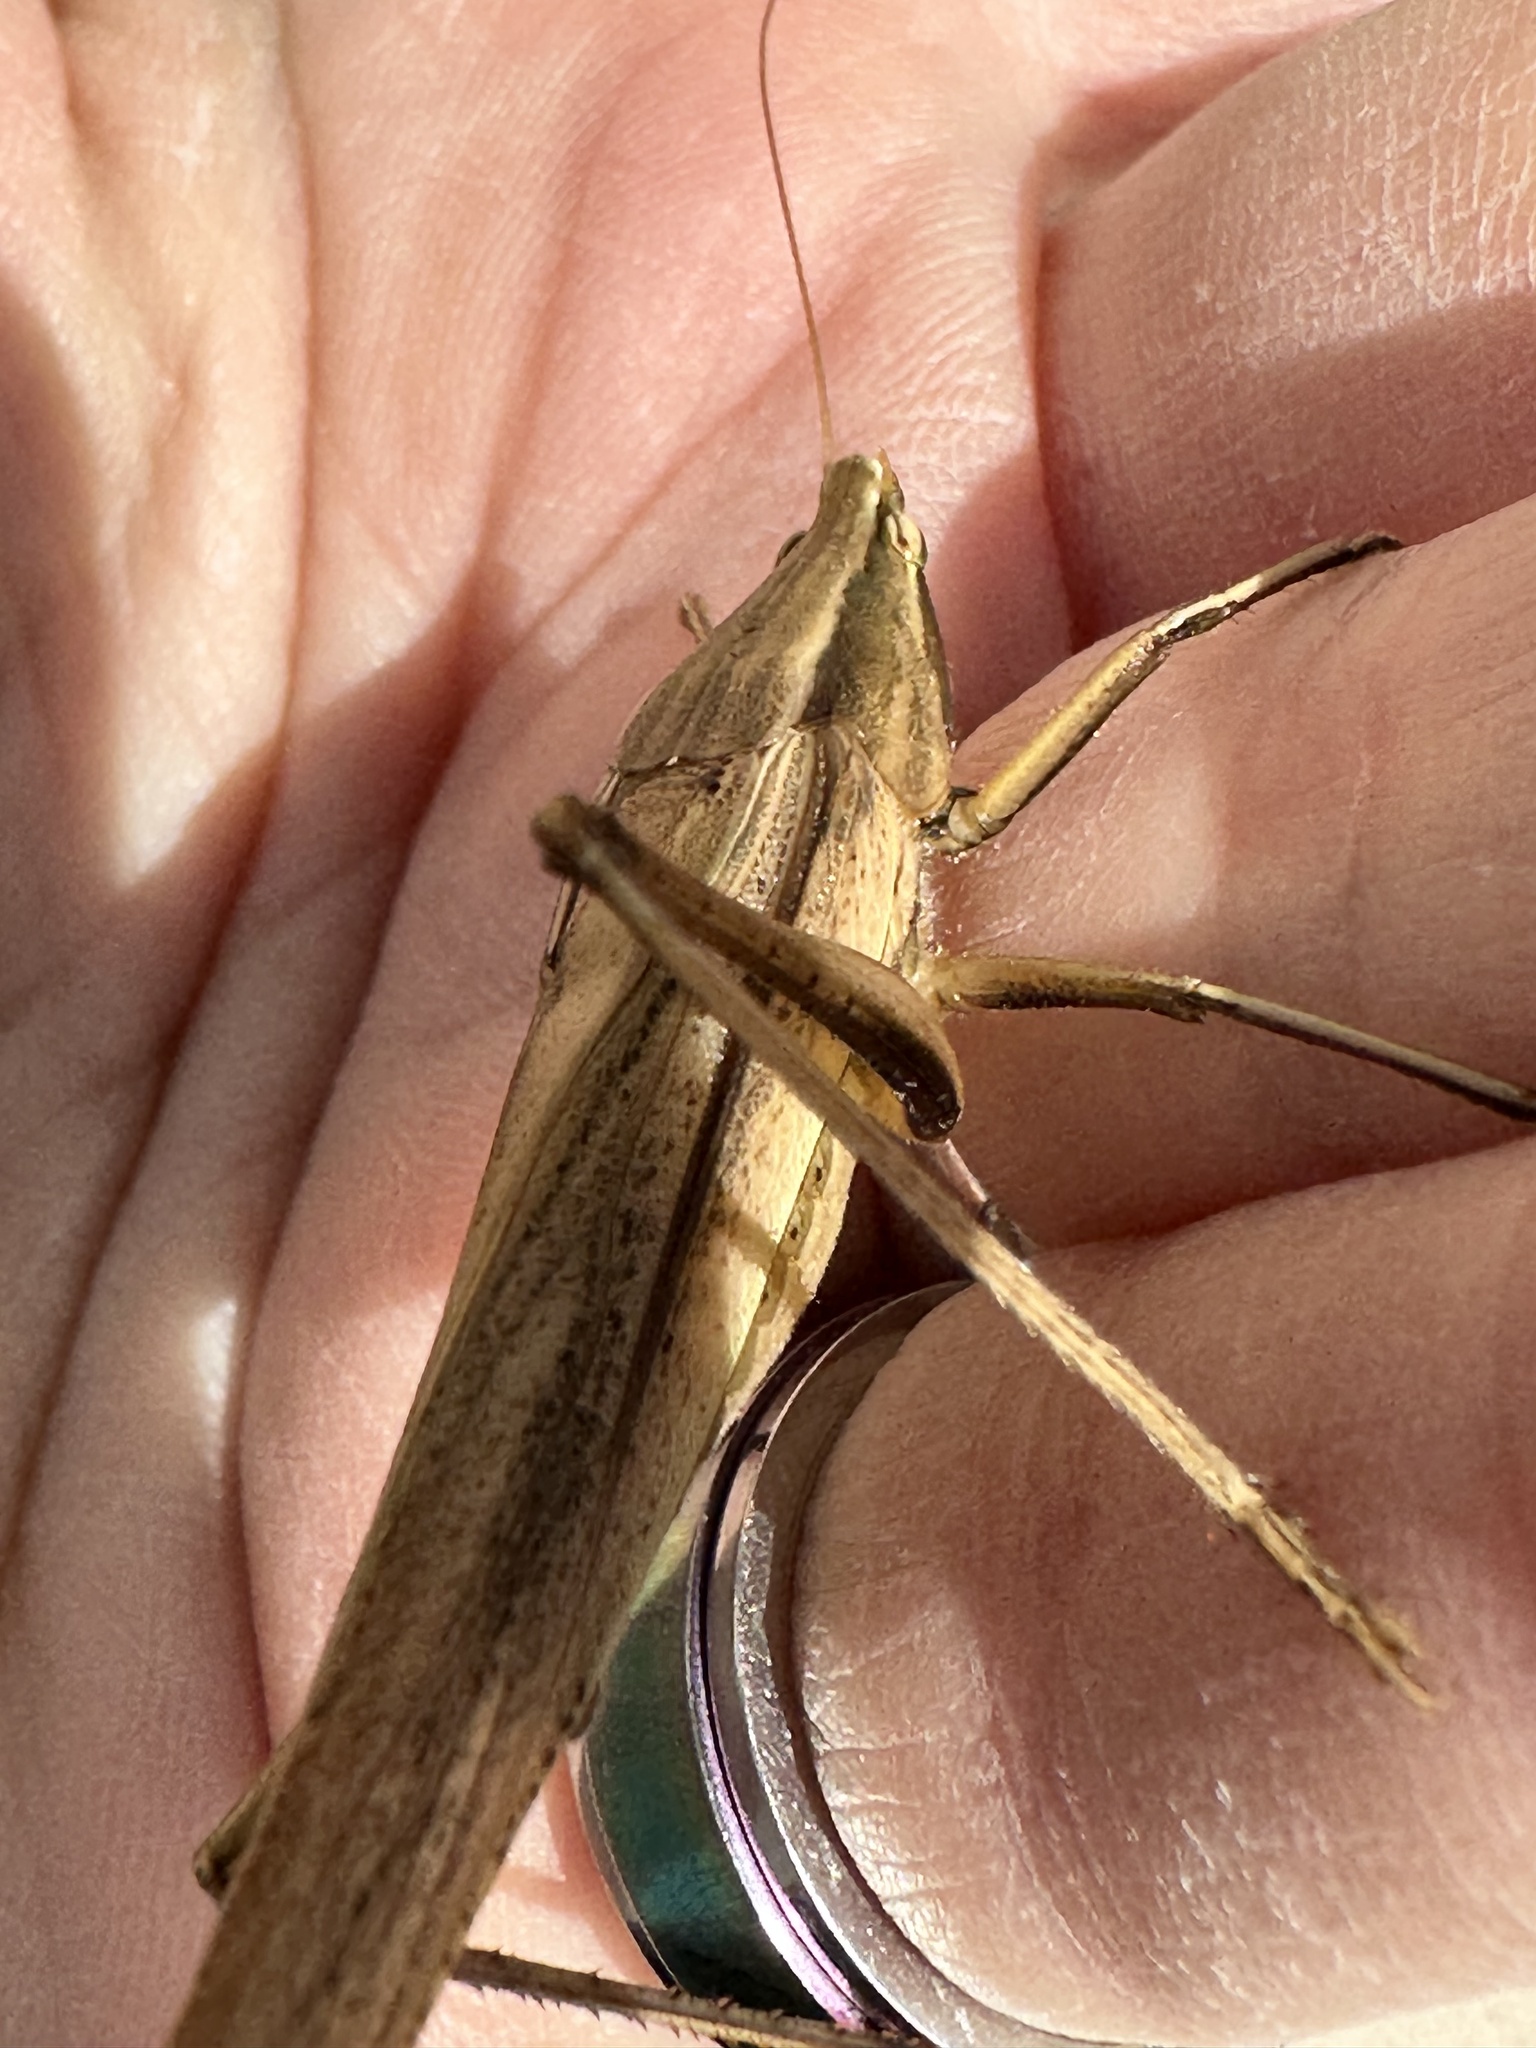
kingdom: Animalia
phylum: Arthropoda
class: Insecta
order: Orthoptera
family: Tettigoniidae
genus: Neoconocephalus
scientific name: Neoconocephalus triops
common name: Broad-tipped conehead
